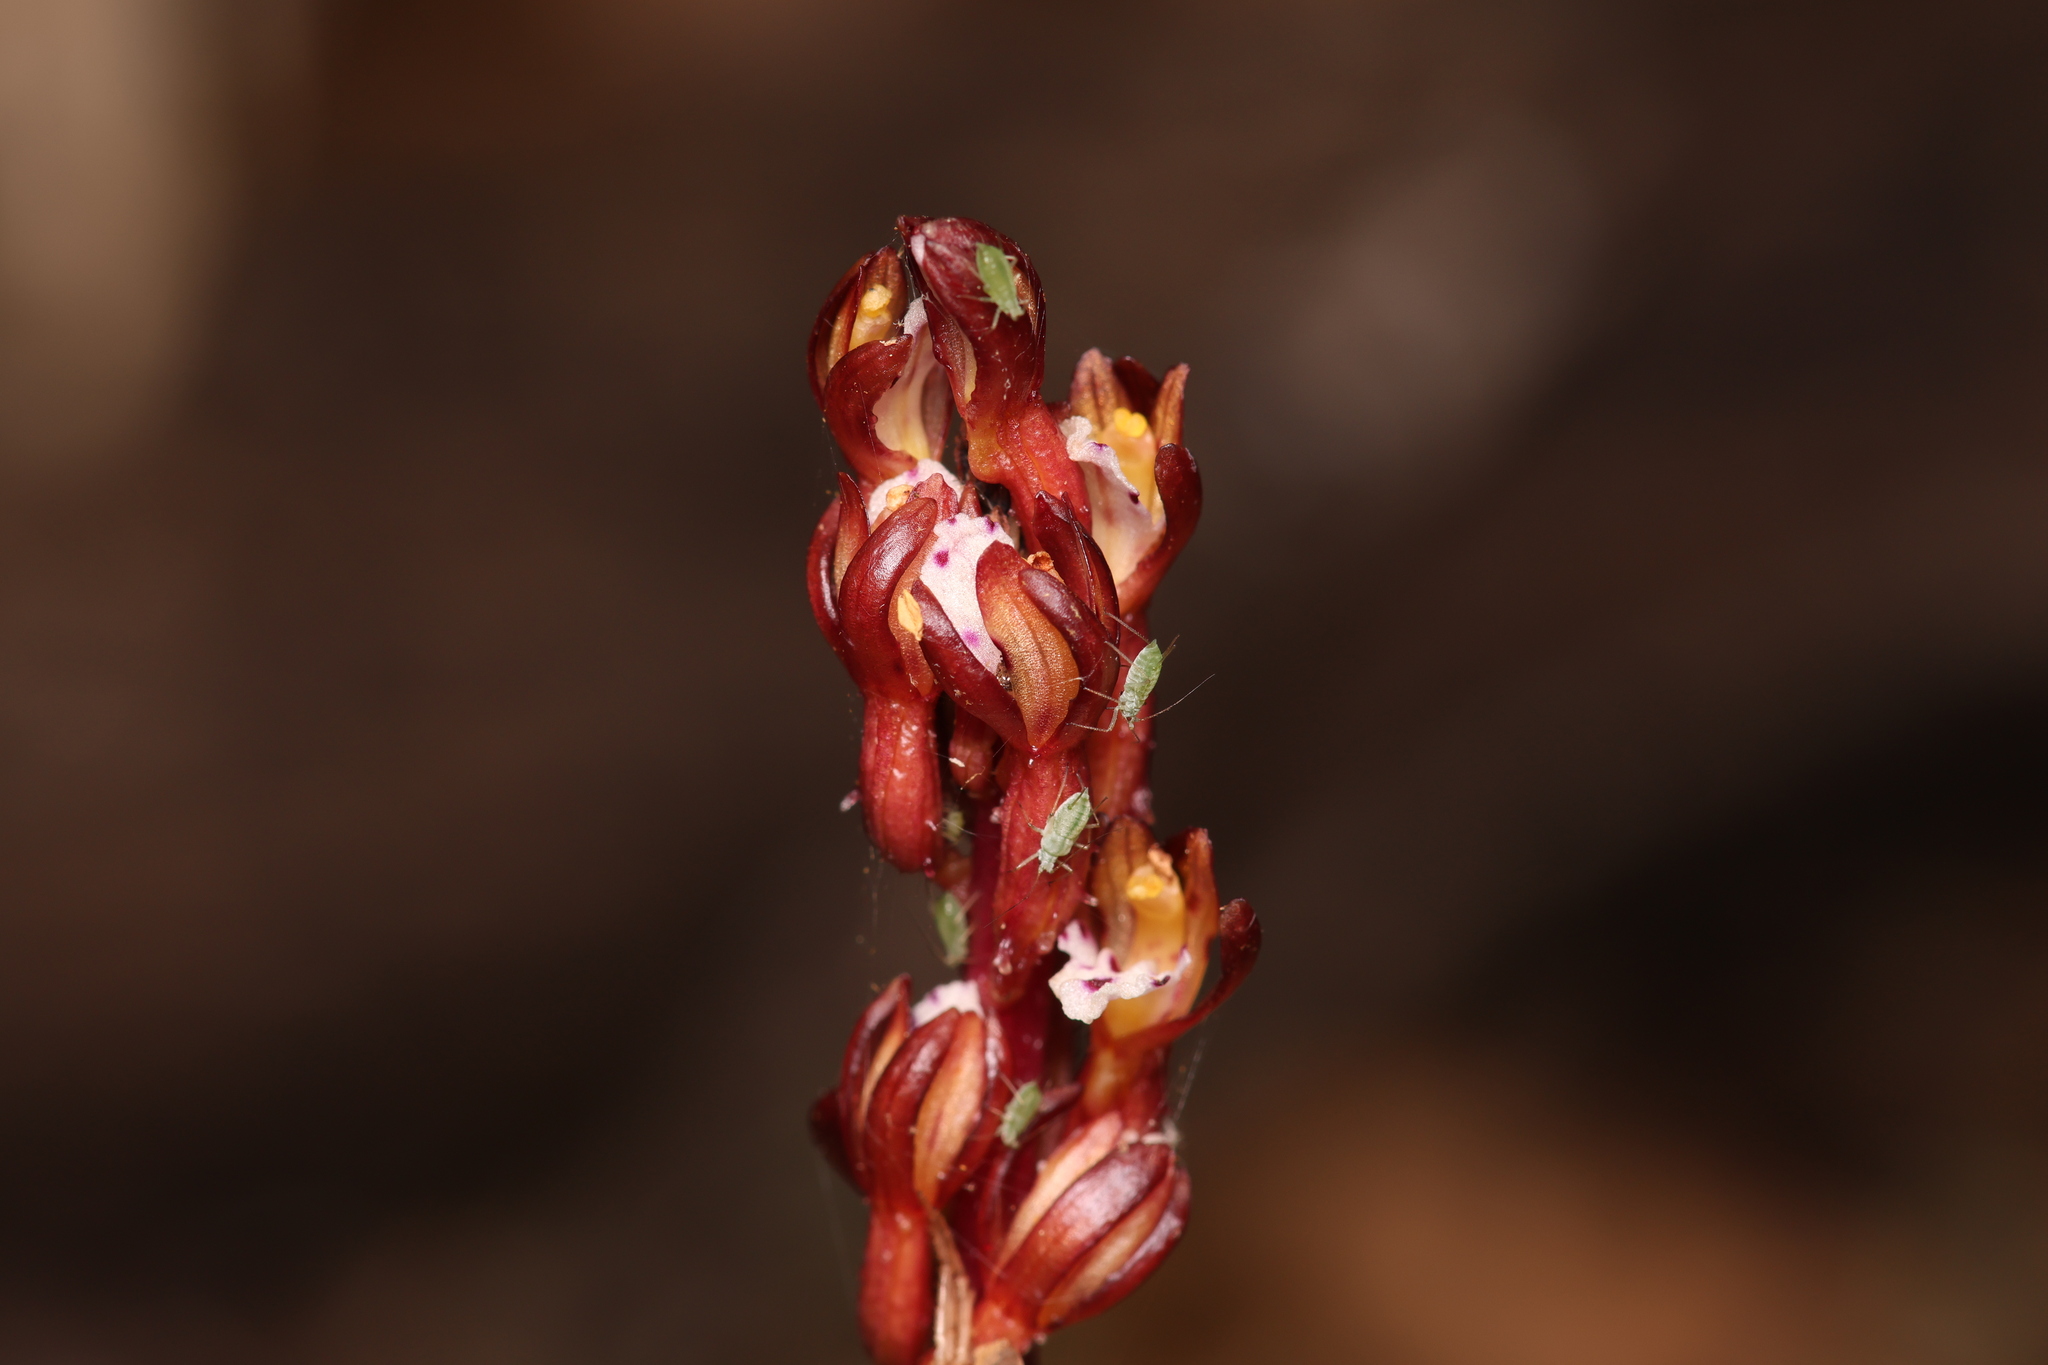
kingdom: Plantae
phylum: Tracheophyta
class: Liliopsida
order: Asparagales
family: Orchidaceae
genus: Corallorhiza
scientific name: Corallorhiza maculata
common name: Spotted coralroot
